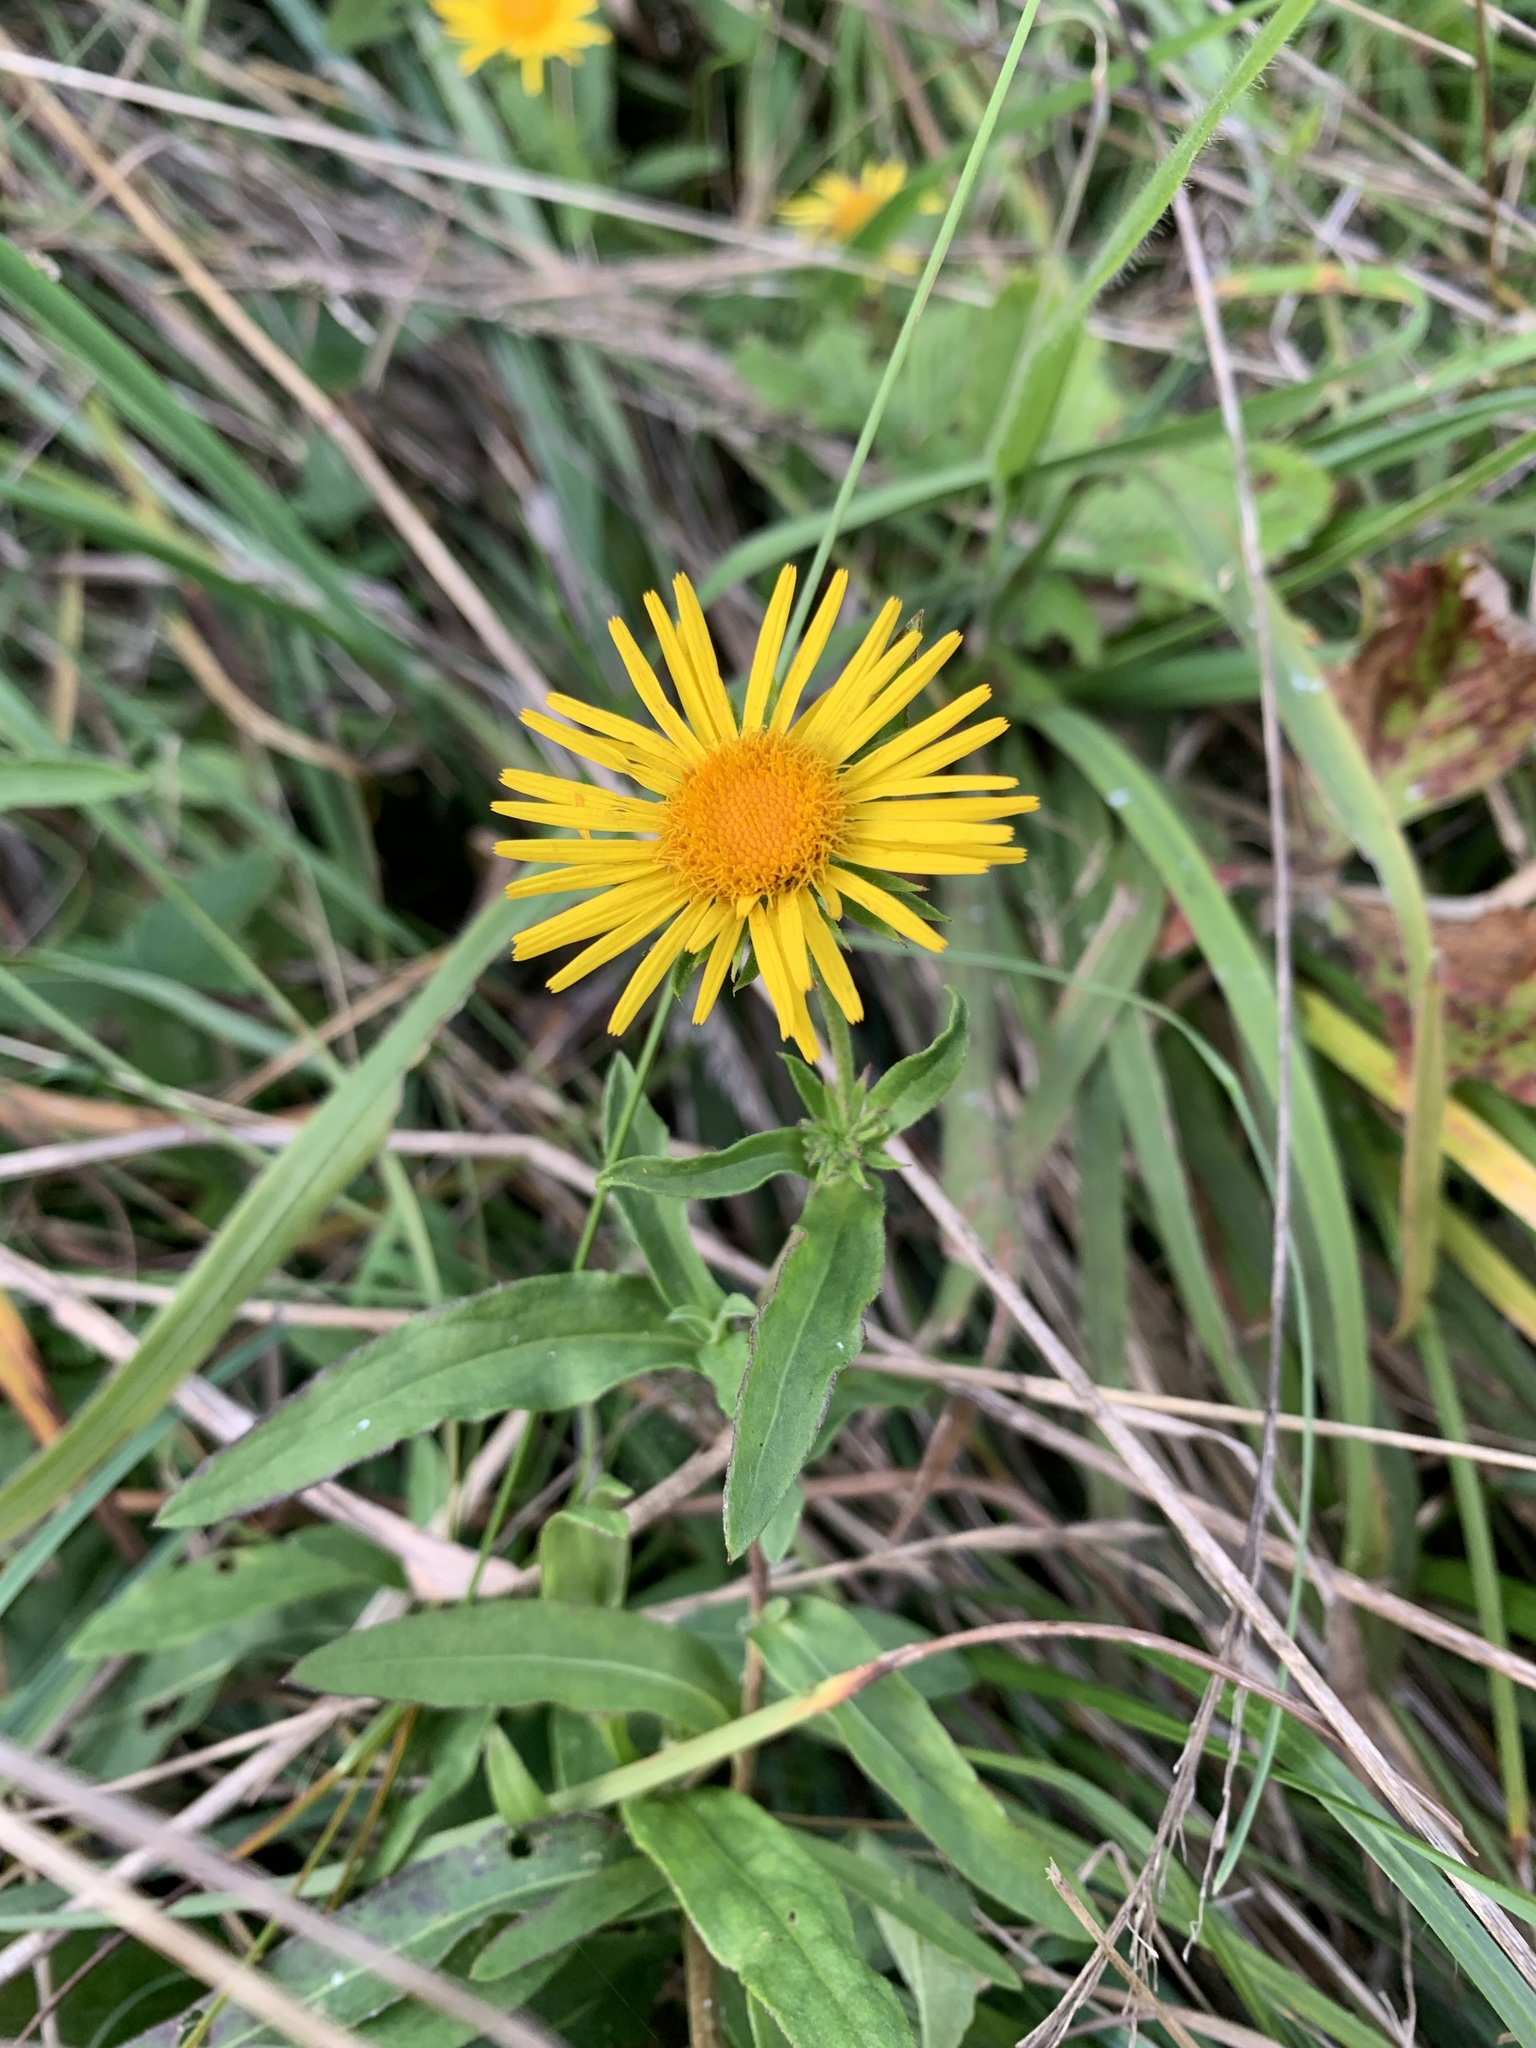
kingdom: Plantae
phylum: Tracheophyta
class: Magnoliopsida
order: Asterales
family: Asteraceae
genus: Pentanema
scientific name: Pentanema britannicum
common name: British elecampane
